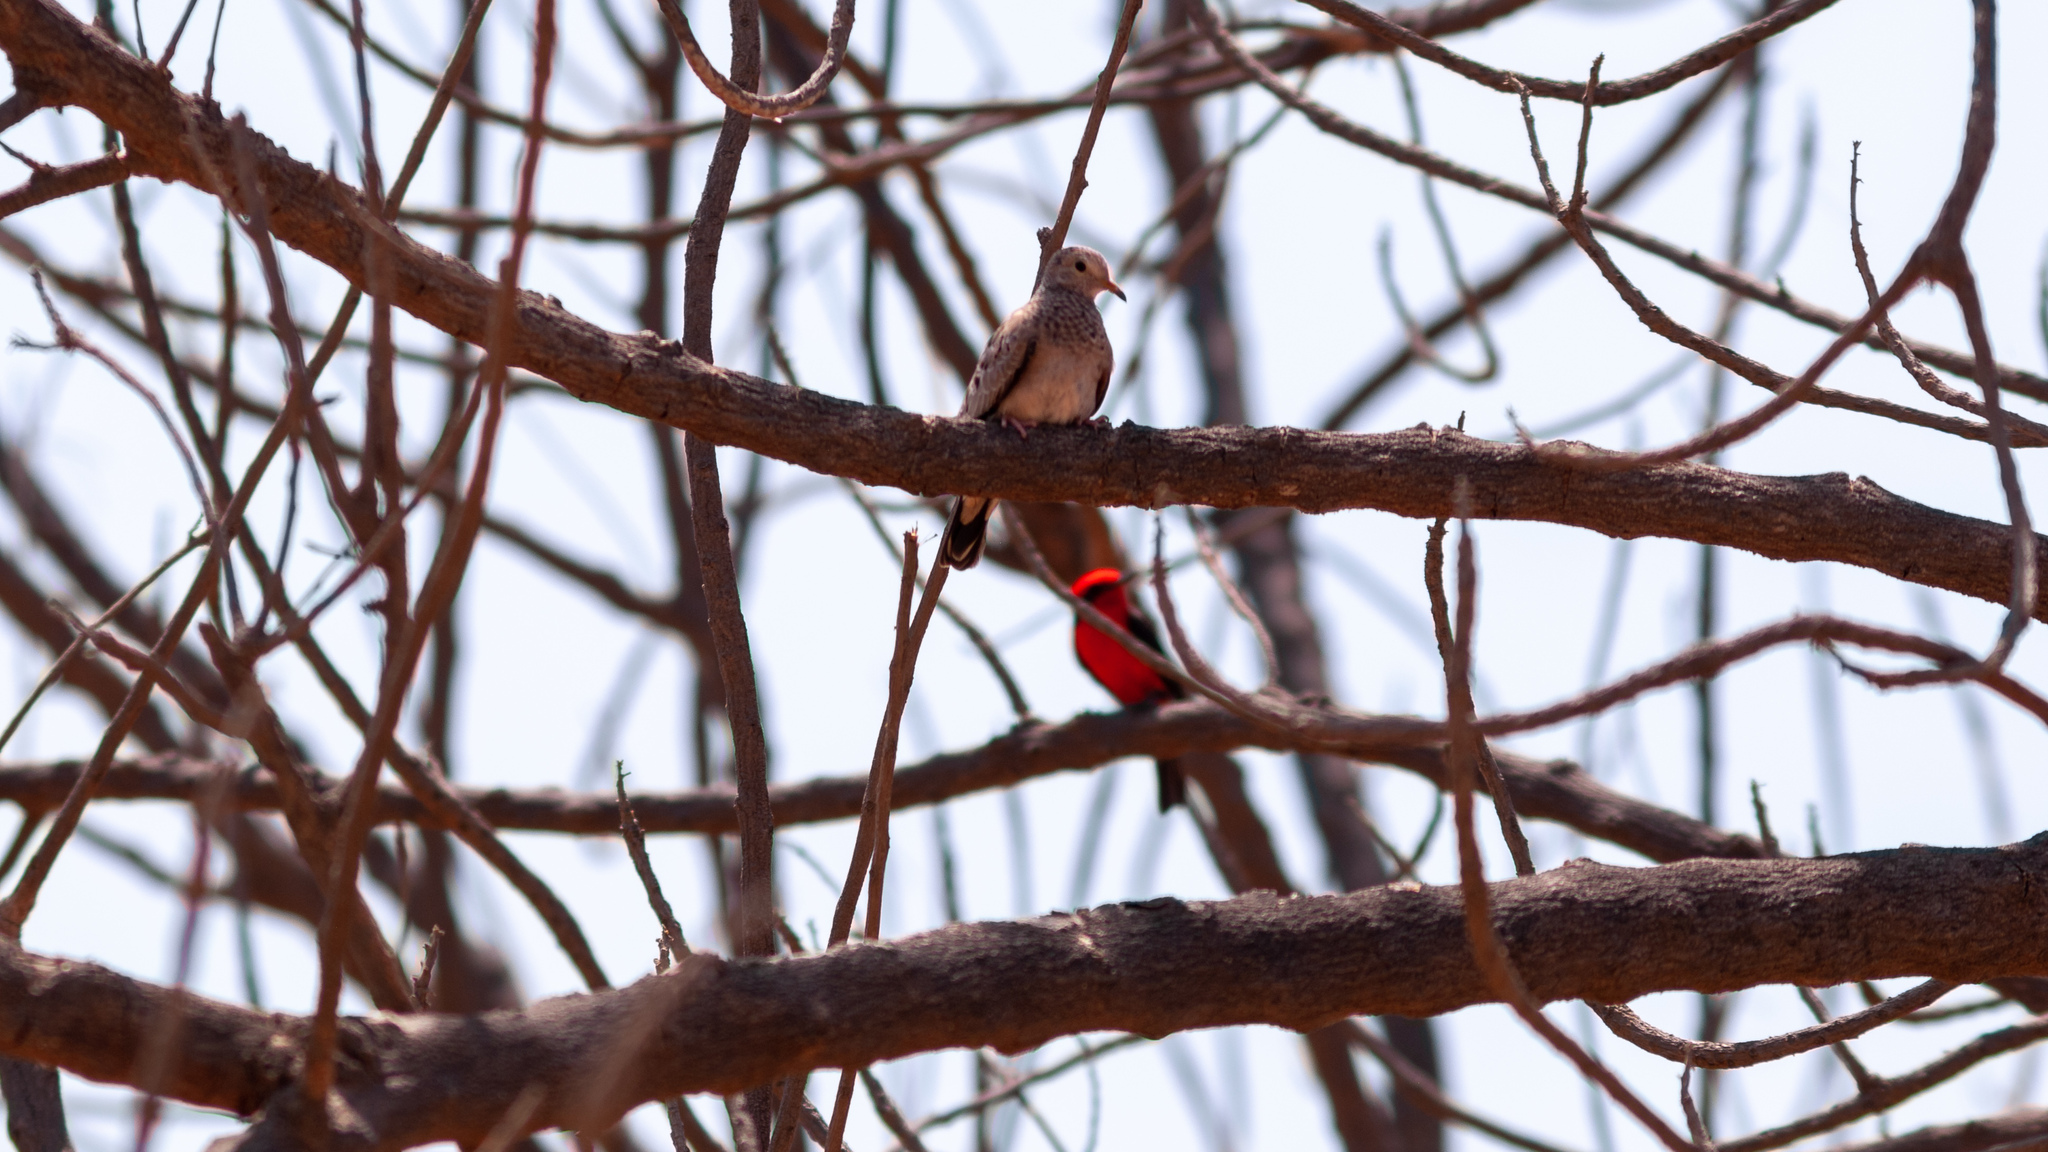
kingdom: Animalia
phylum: Chordata
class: Aves
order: Columbiformes
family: Columbidae
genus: Columbina
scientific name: Columbina passerina
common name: Common ground-dove
